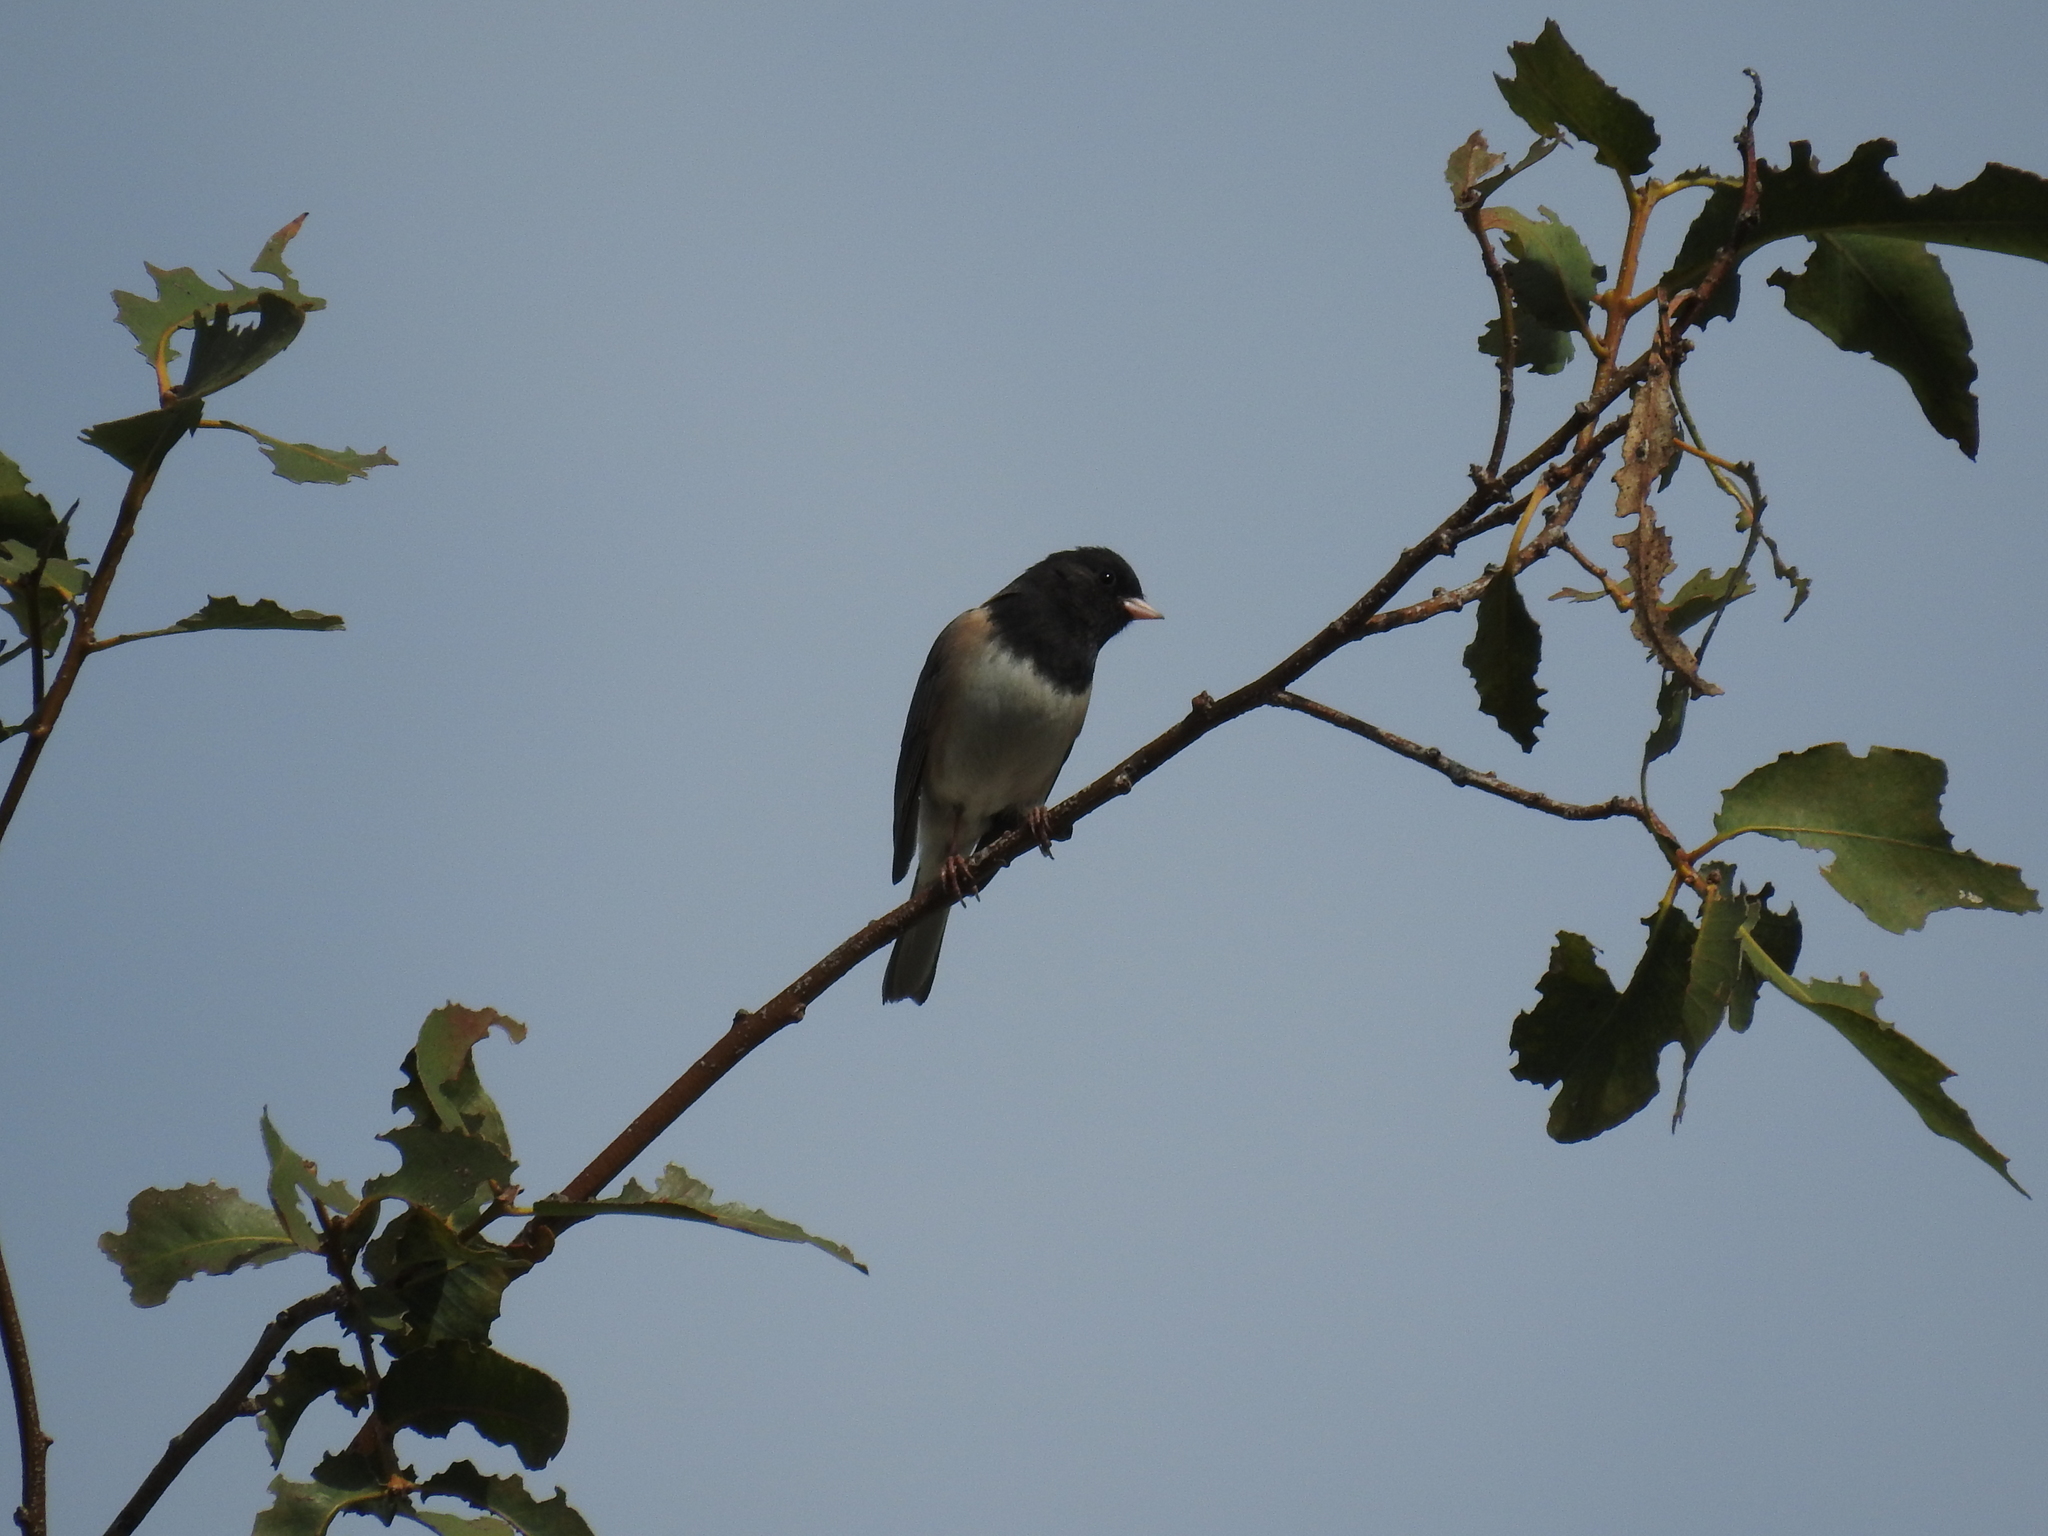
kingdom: Animalia
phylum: Chordata
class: Aves
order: Passeriformes
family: Passerellidae
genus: Junco
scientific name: Junco hyemalis
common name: Dark-eyed junco
